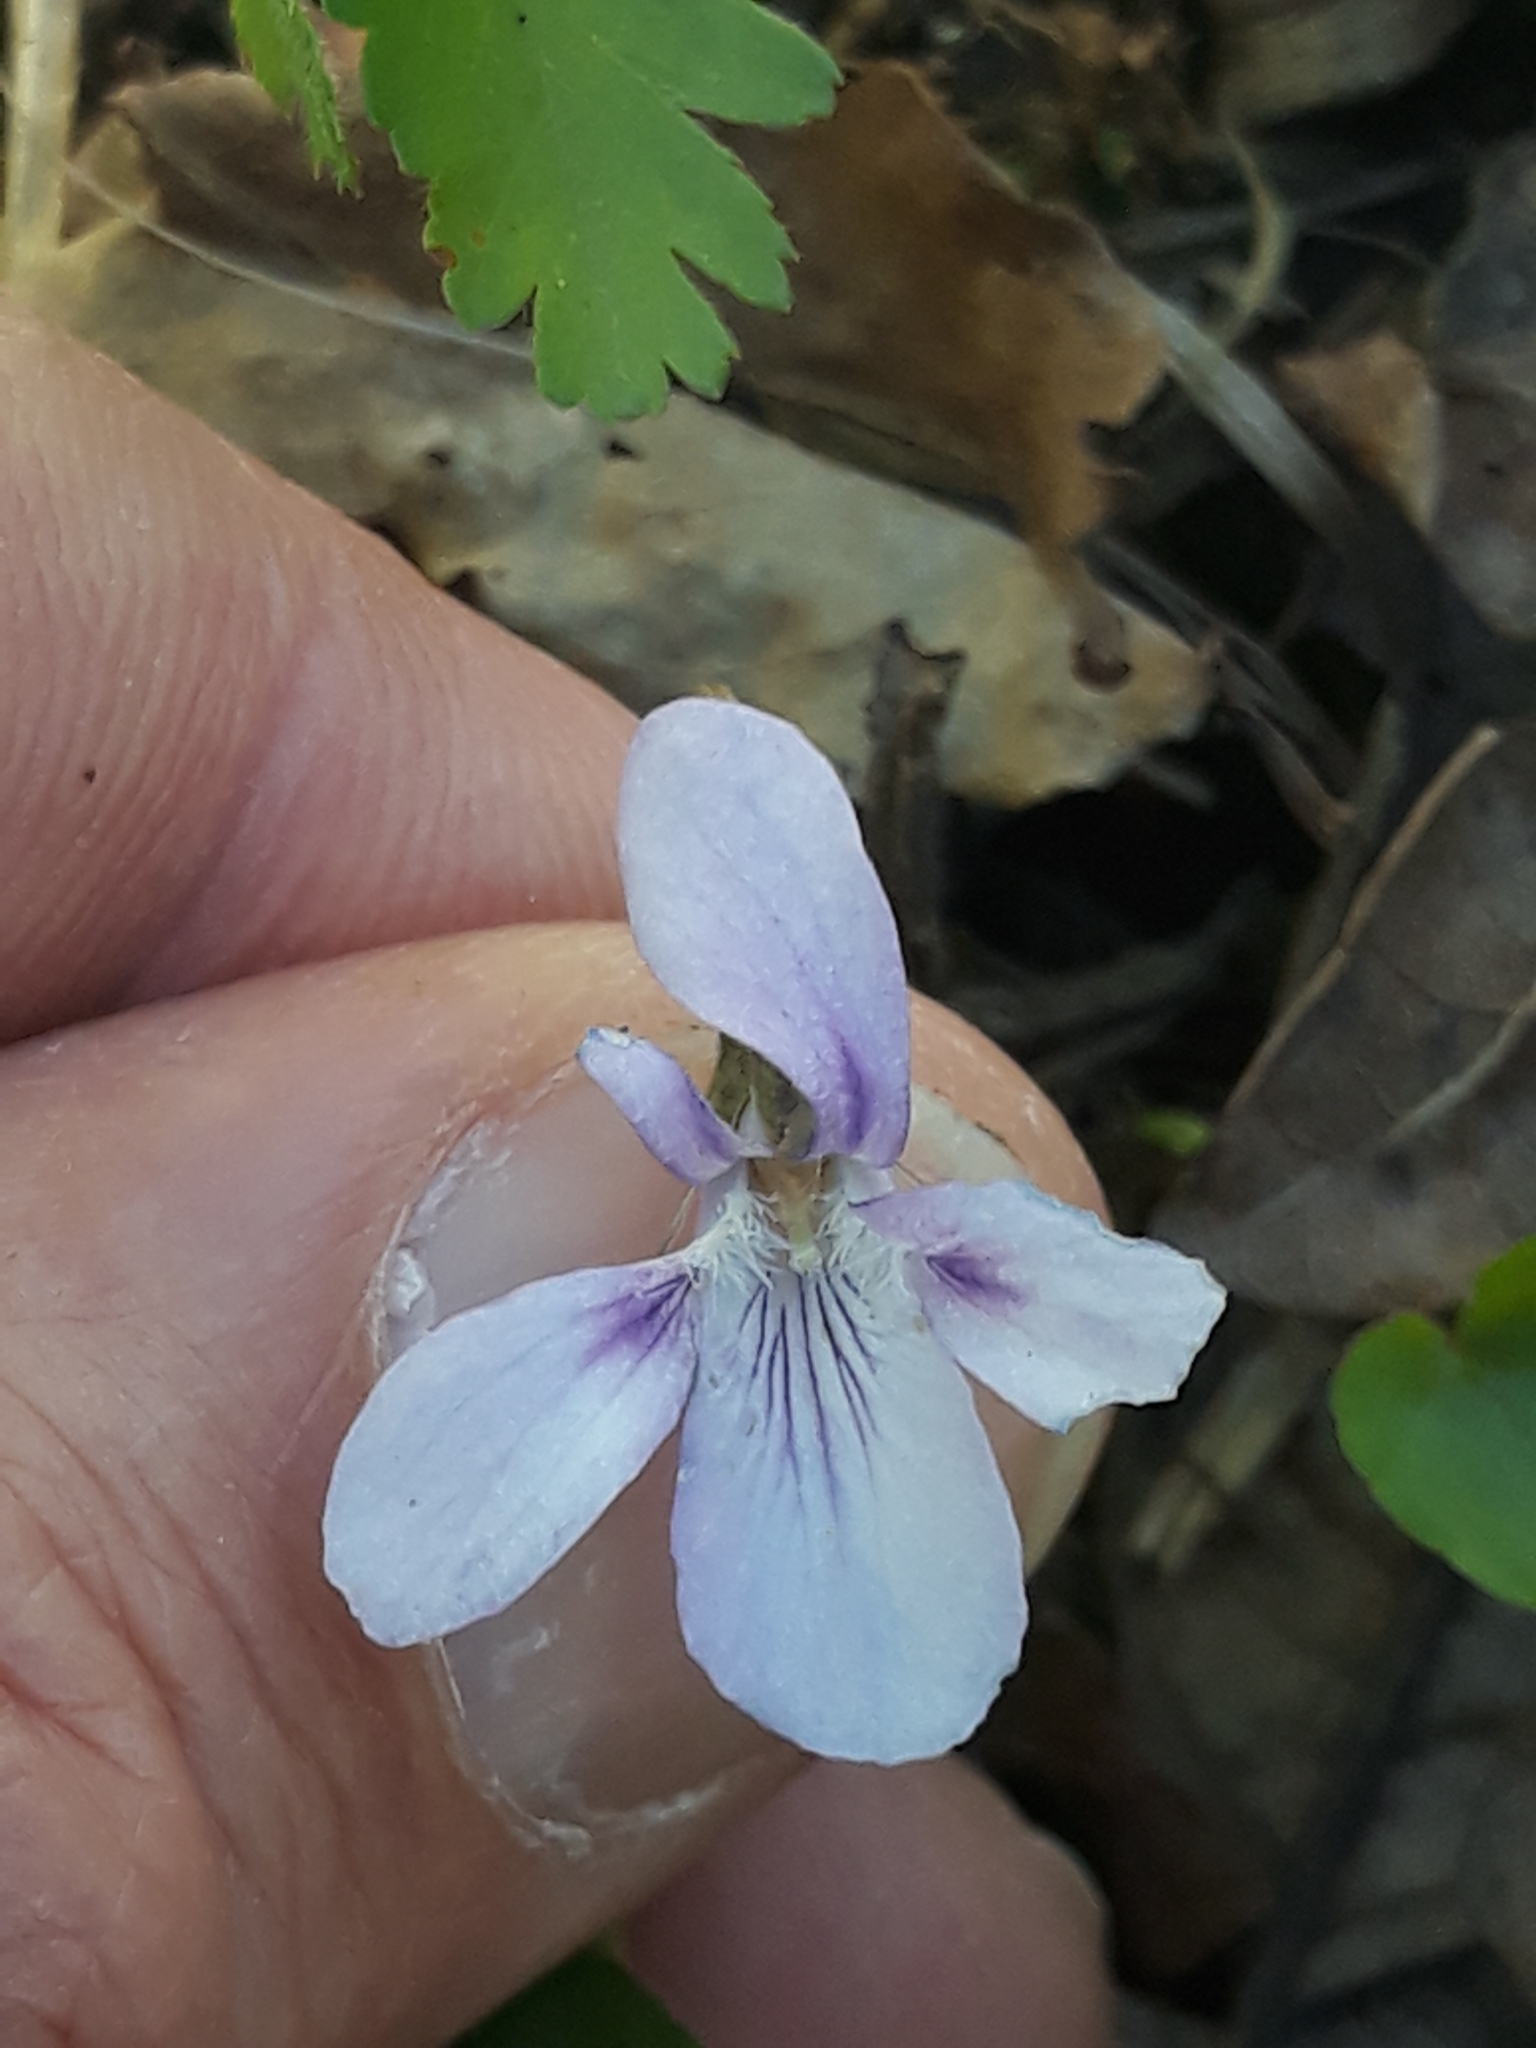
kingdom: Plantae
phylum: Tracheophyta
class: Magnoliopsida
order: Malpighiales
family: Violaceae
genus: Viola
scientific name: Viola riviniana
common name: Common dog-violet
